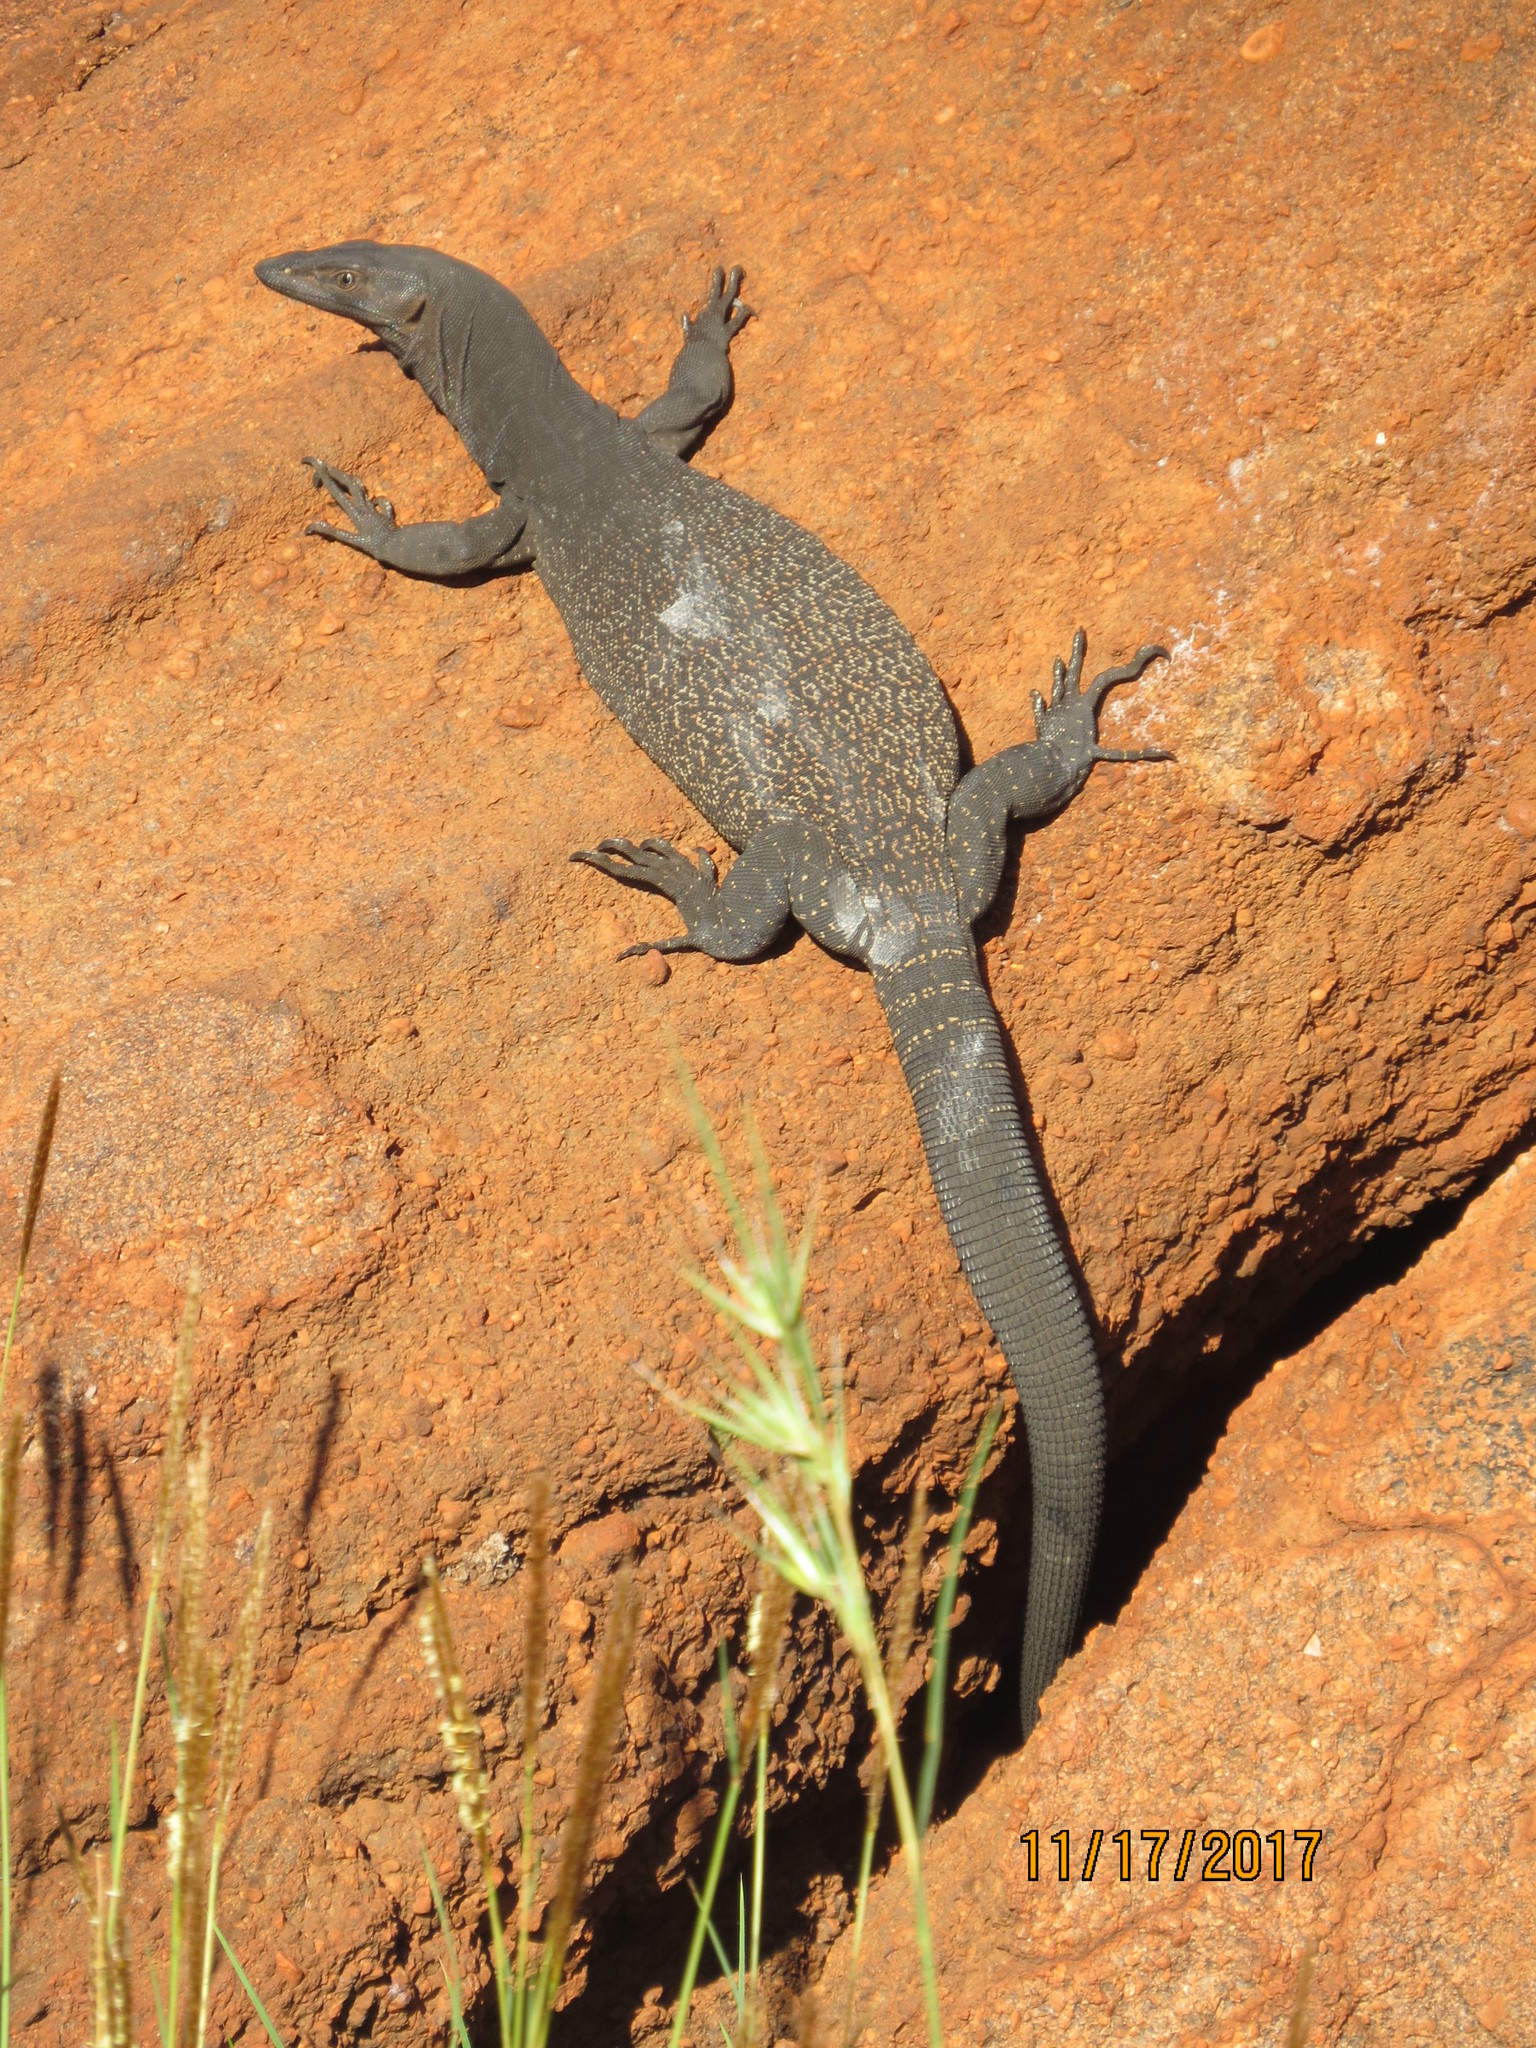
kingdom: Animalia
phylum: Chordata
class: Squamata
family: Varanidae
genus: Varanus
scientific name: Varanus tristis
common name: Arid monitor
